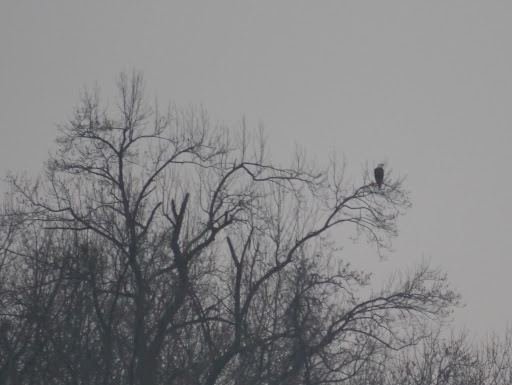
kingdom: Animalia
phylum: Chordata
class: Aves
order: Accipitriformes
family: Accipitridae
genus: Haliaeetus
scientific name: Haliaeetus leucocephalus
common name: Bald eagle
